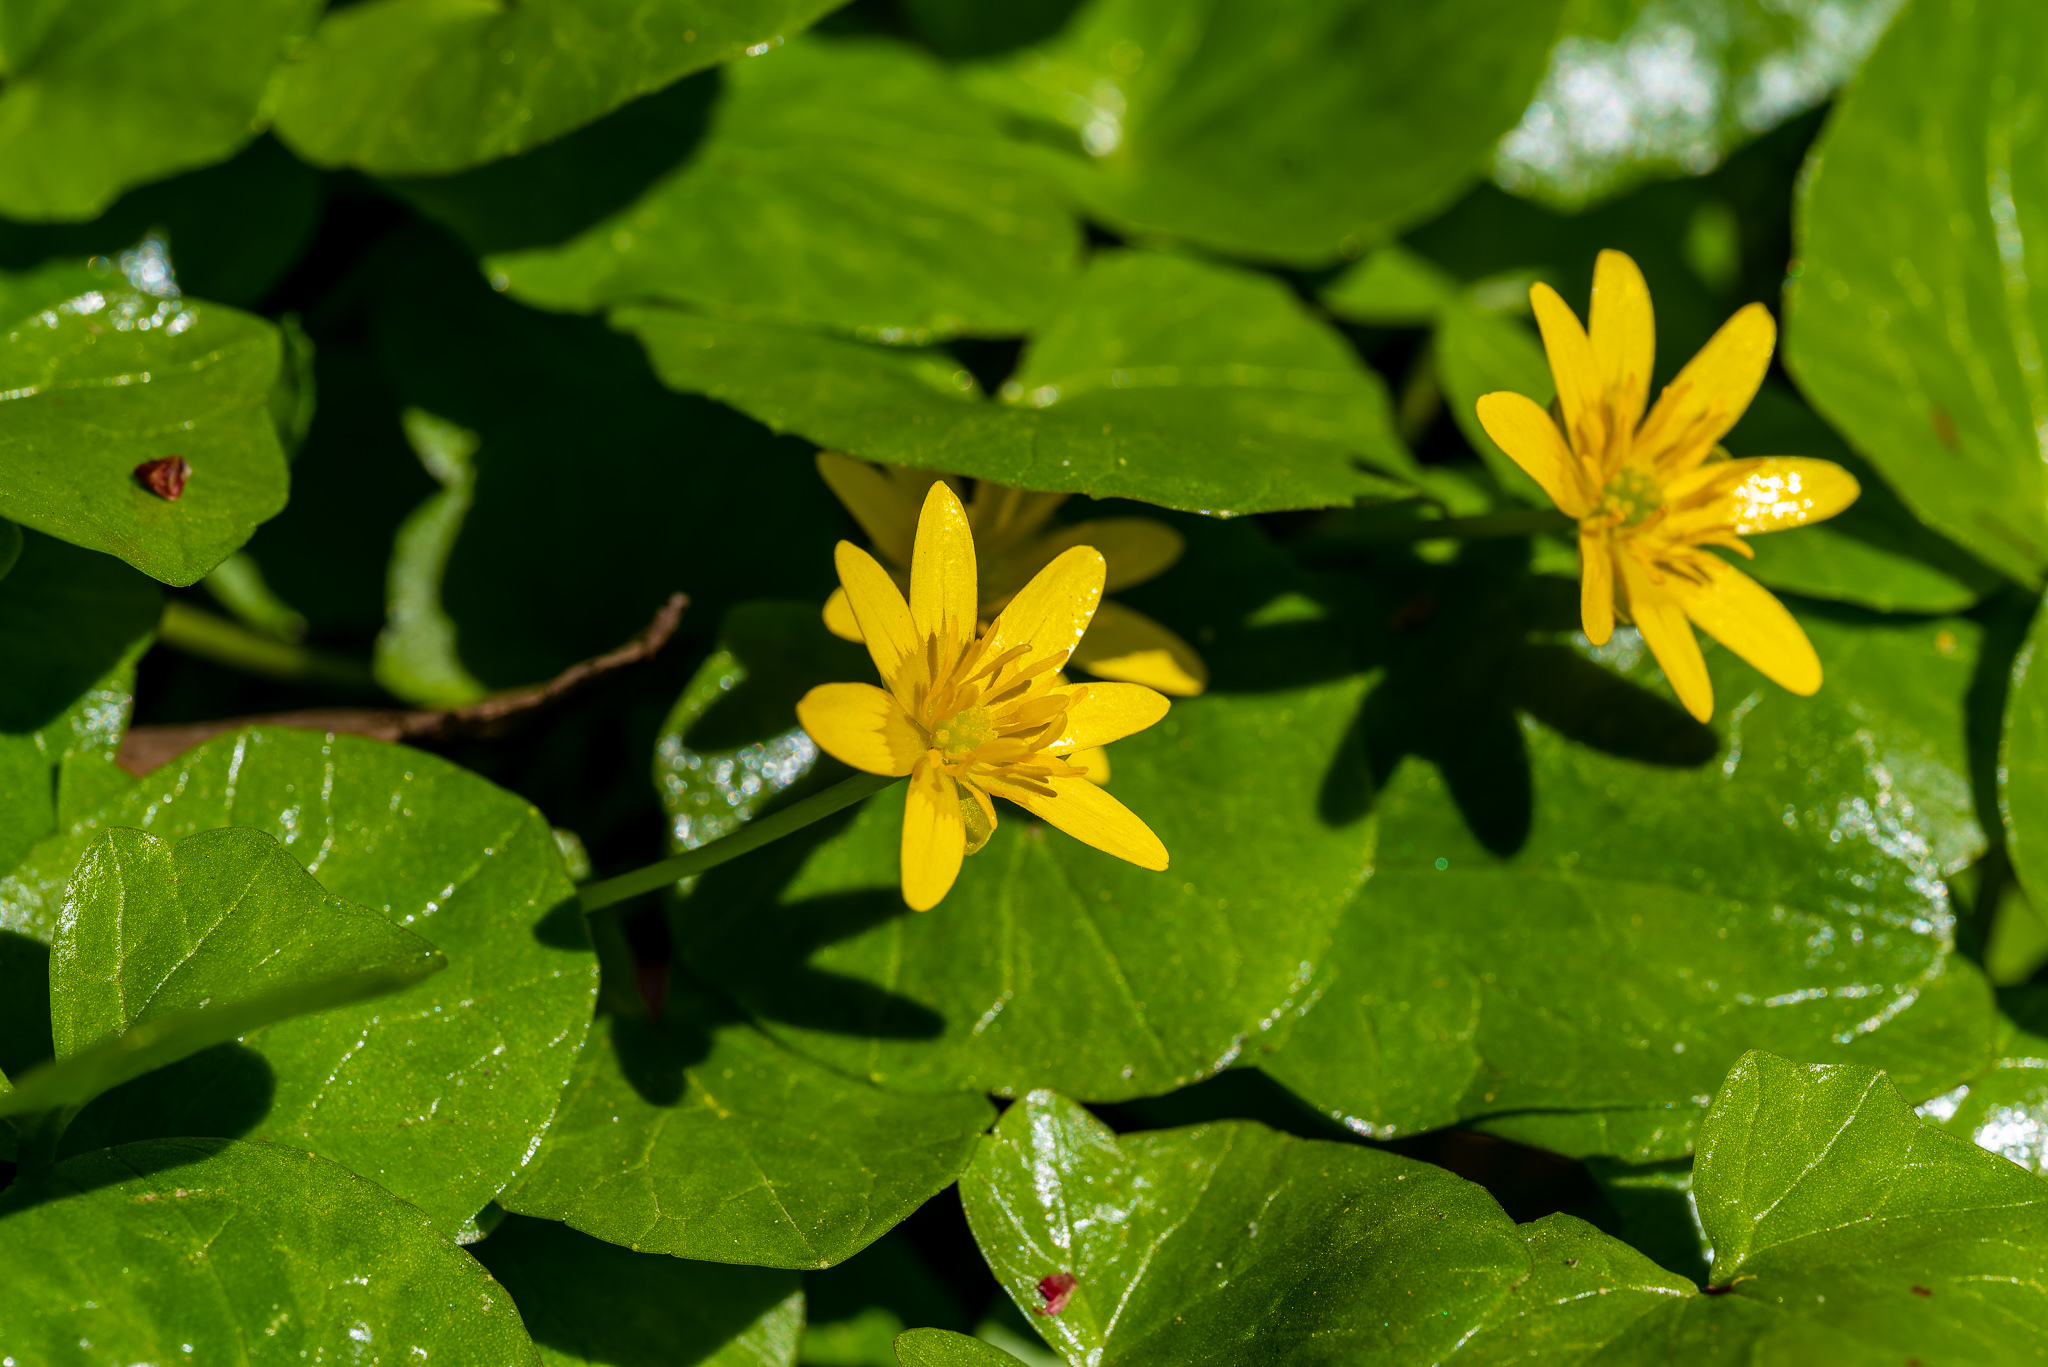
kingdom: Plantae
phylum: Tracheophyta
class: Magnoliopsida
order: Ranunculales
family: Ranunculaceae
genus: Ficaria
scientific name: Ficaria verna
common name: Lesser celandine
